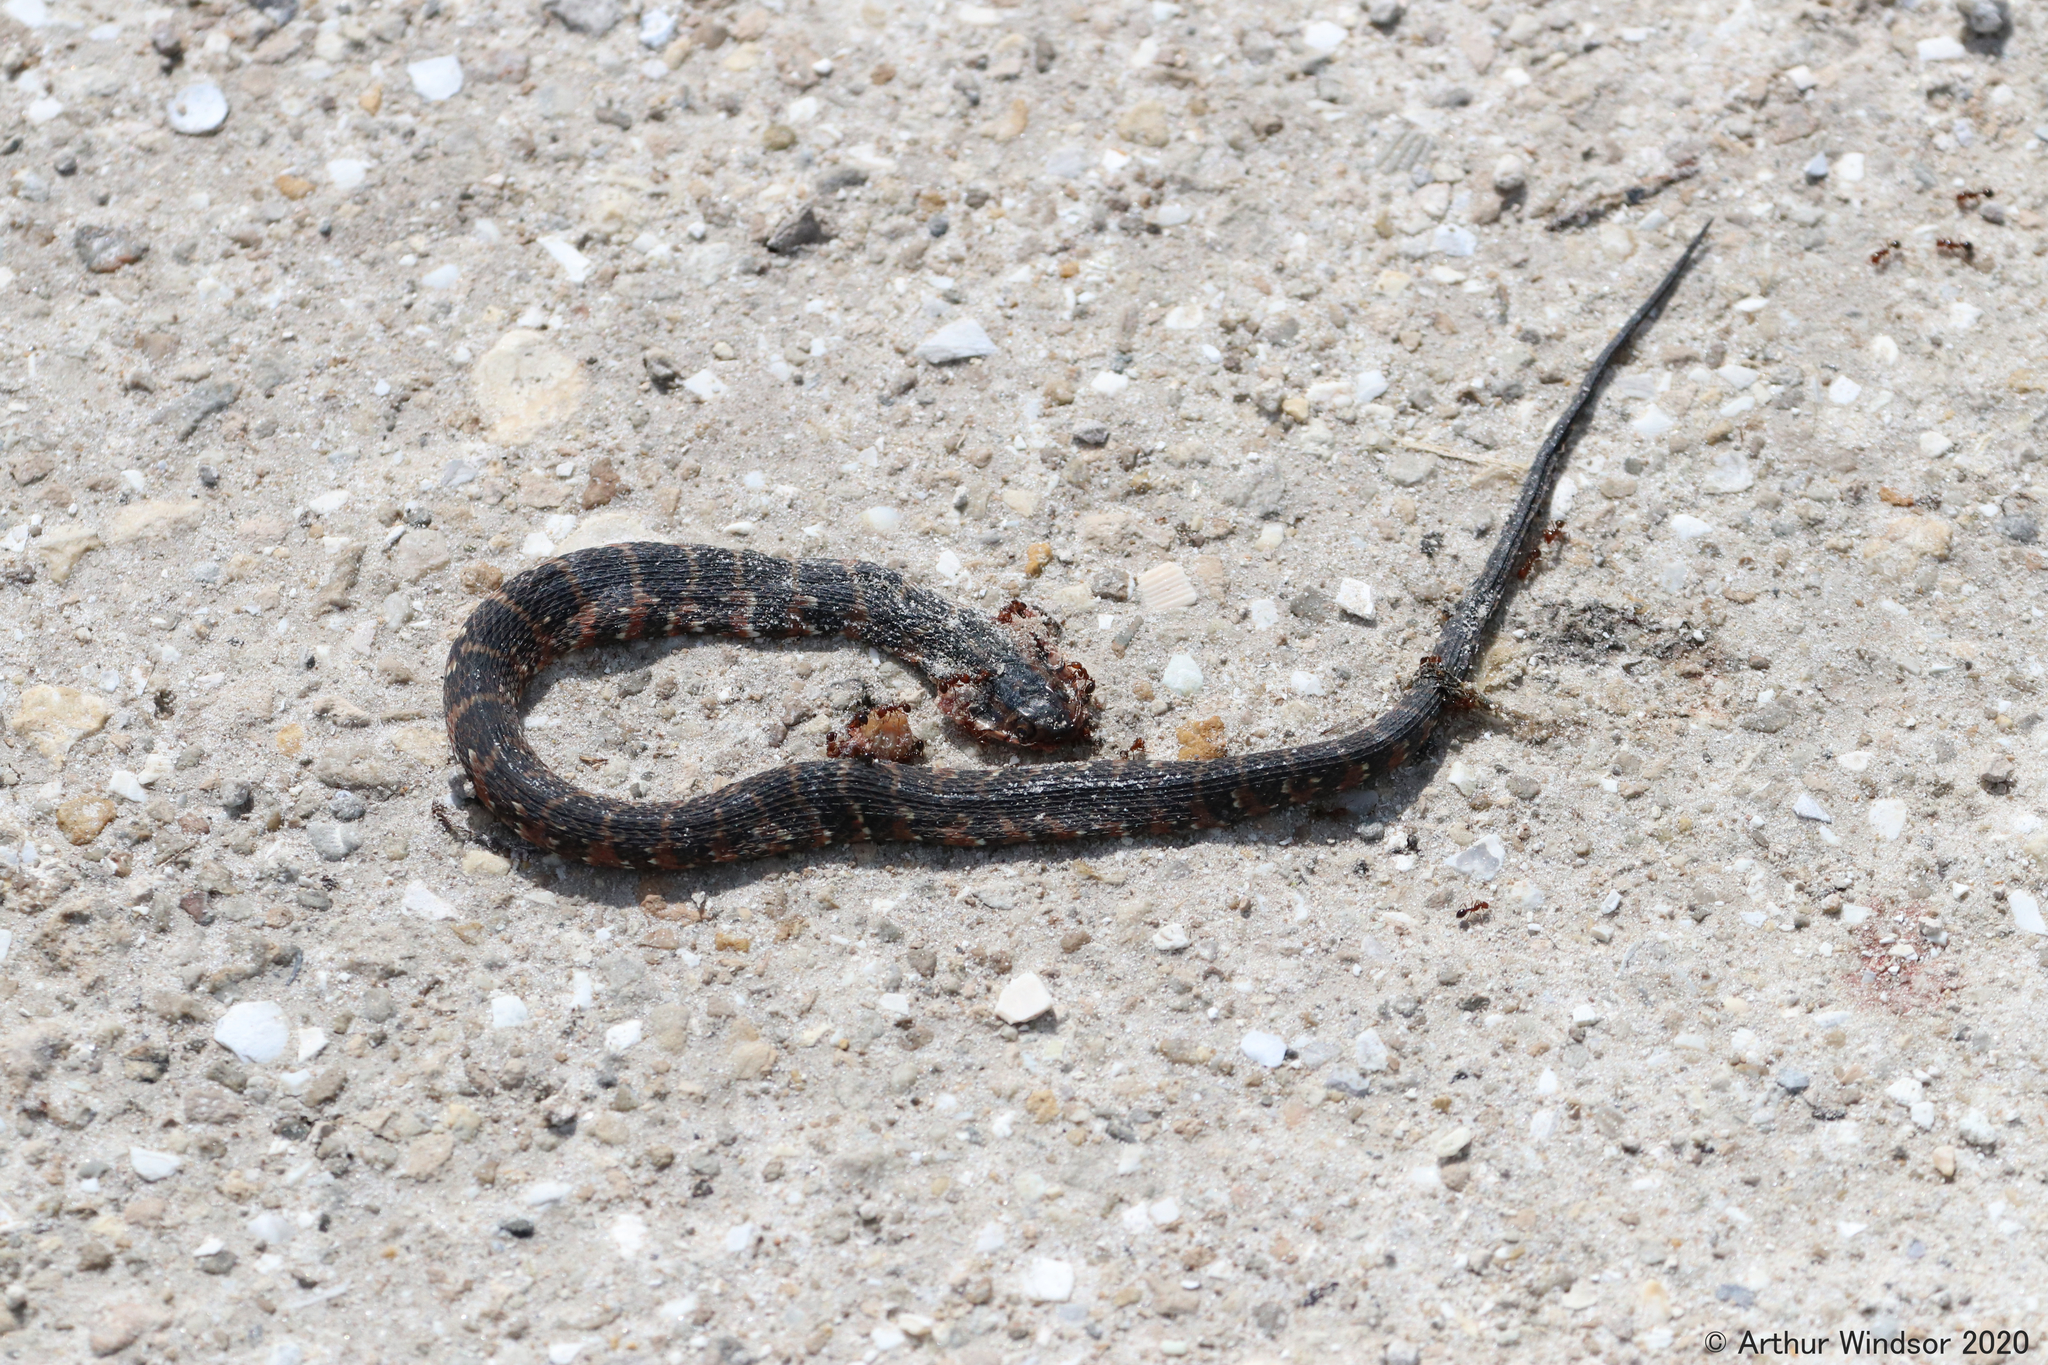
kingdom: Animalia
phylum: Chordata
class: Squamata
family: Colubridae
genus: Nerodia
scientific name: Nerodia fasciata
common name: Southern water snake
